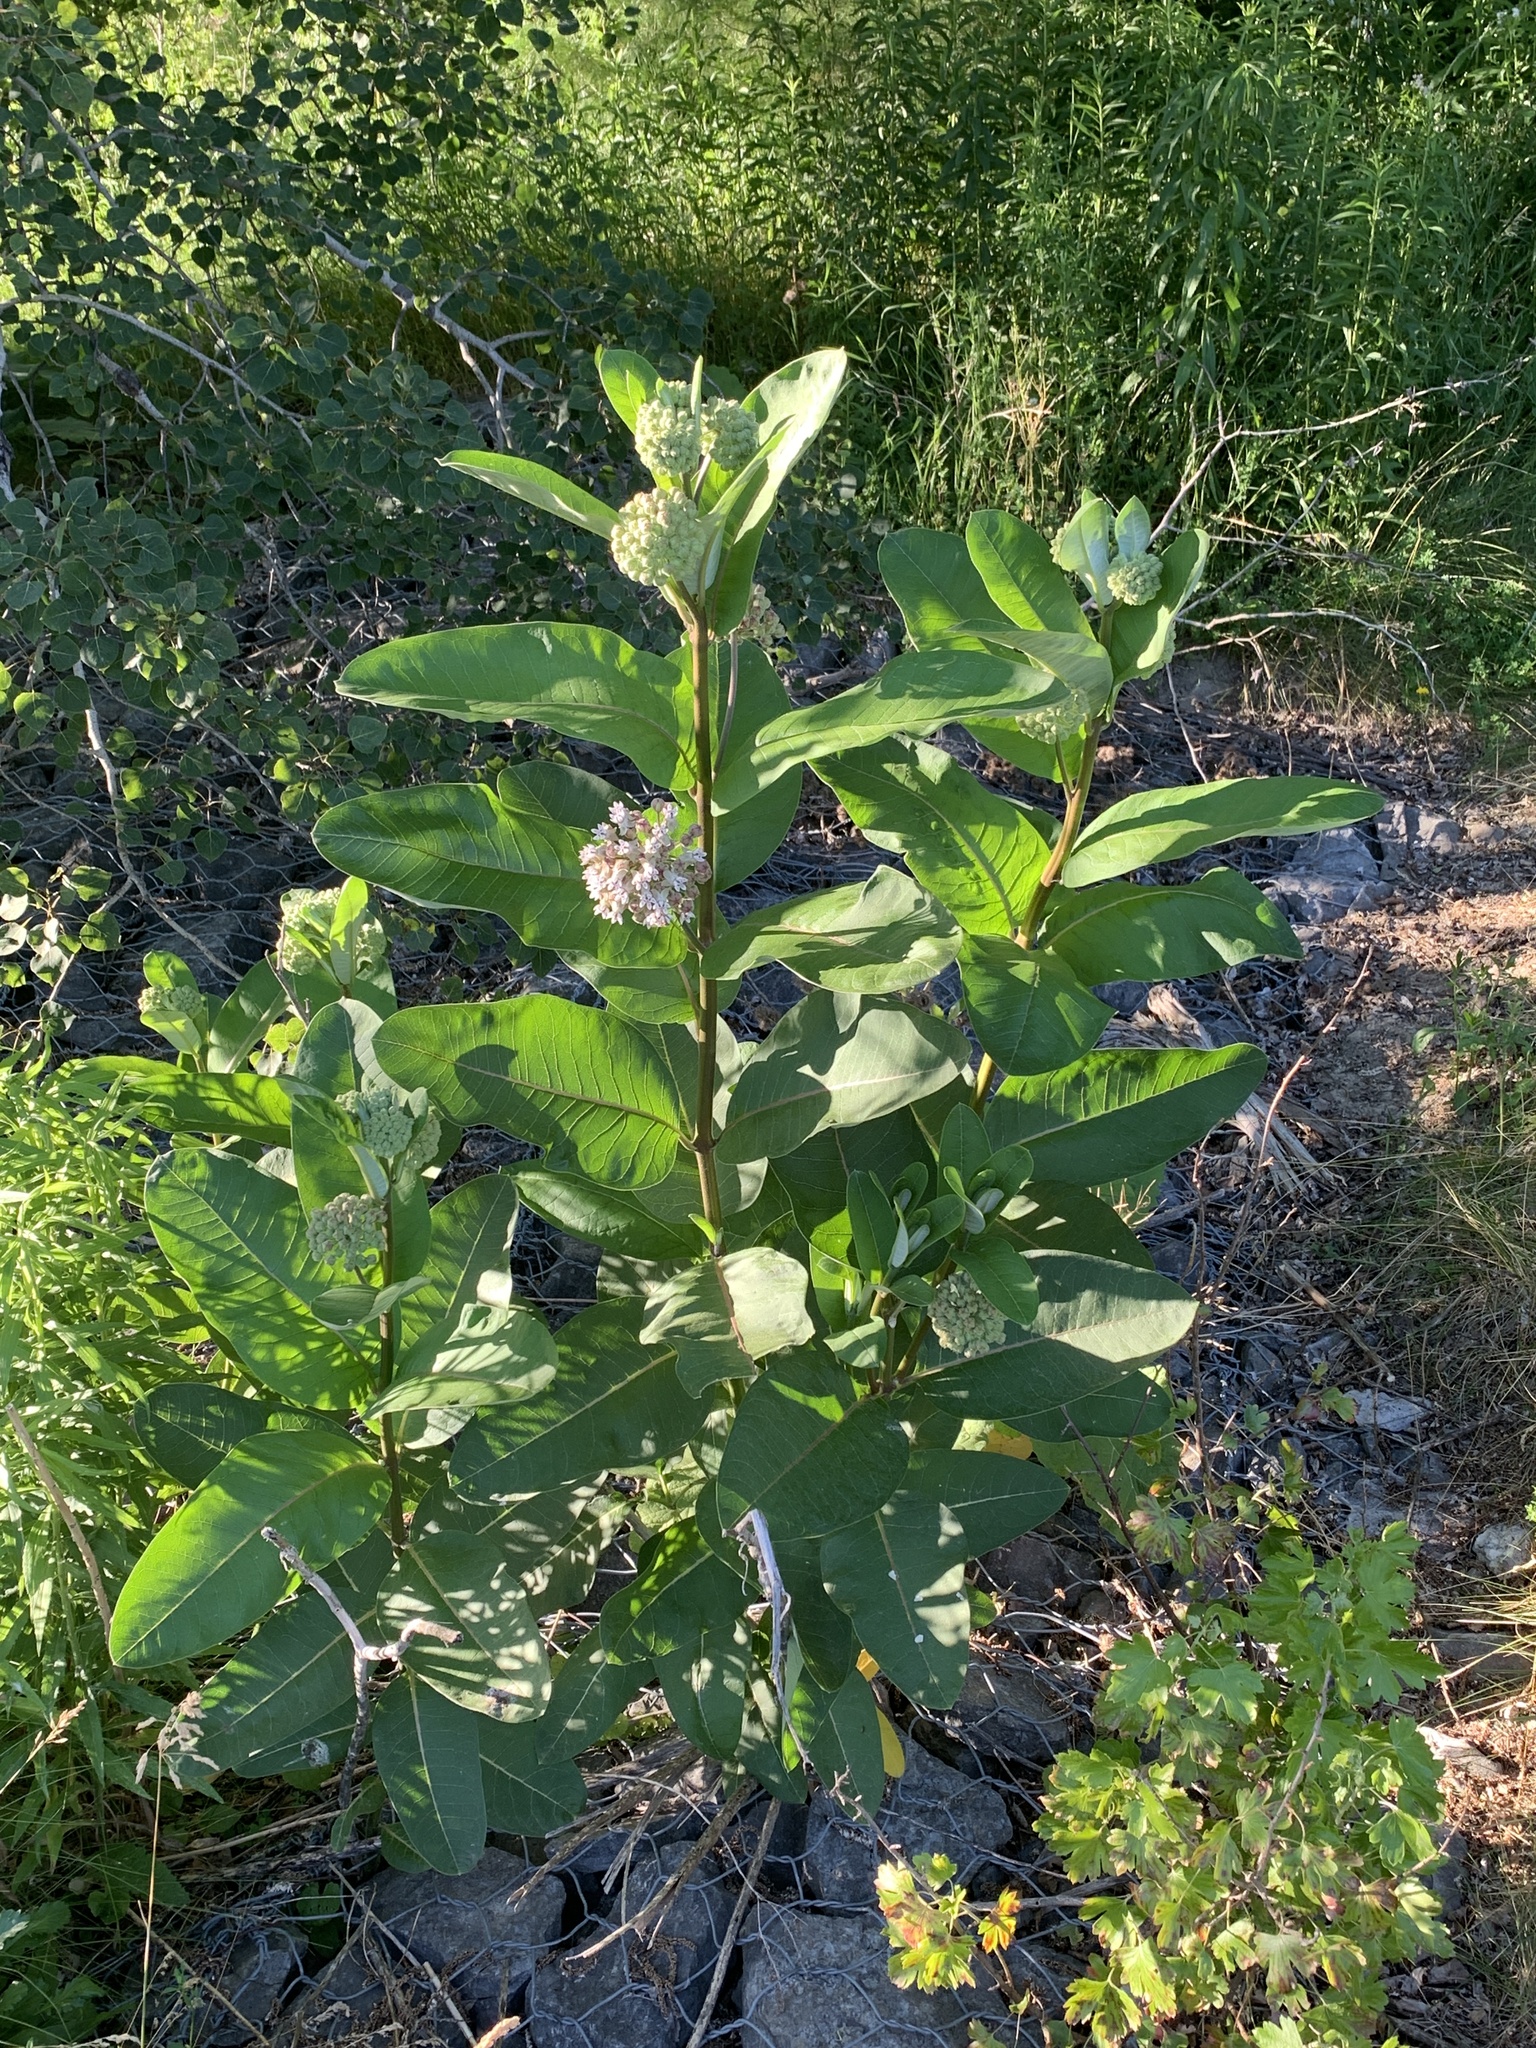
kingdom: Plantae
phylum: Tracheophyta
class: Magnoliopsida
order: Gentianales
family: Apocynaceae
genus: Asclepias
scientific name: Asclepias syriaca
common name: Common milkweed
